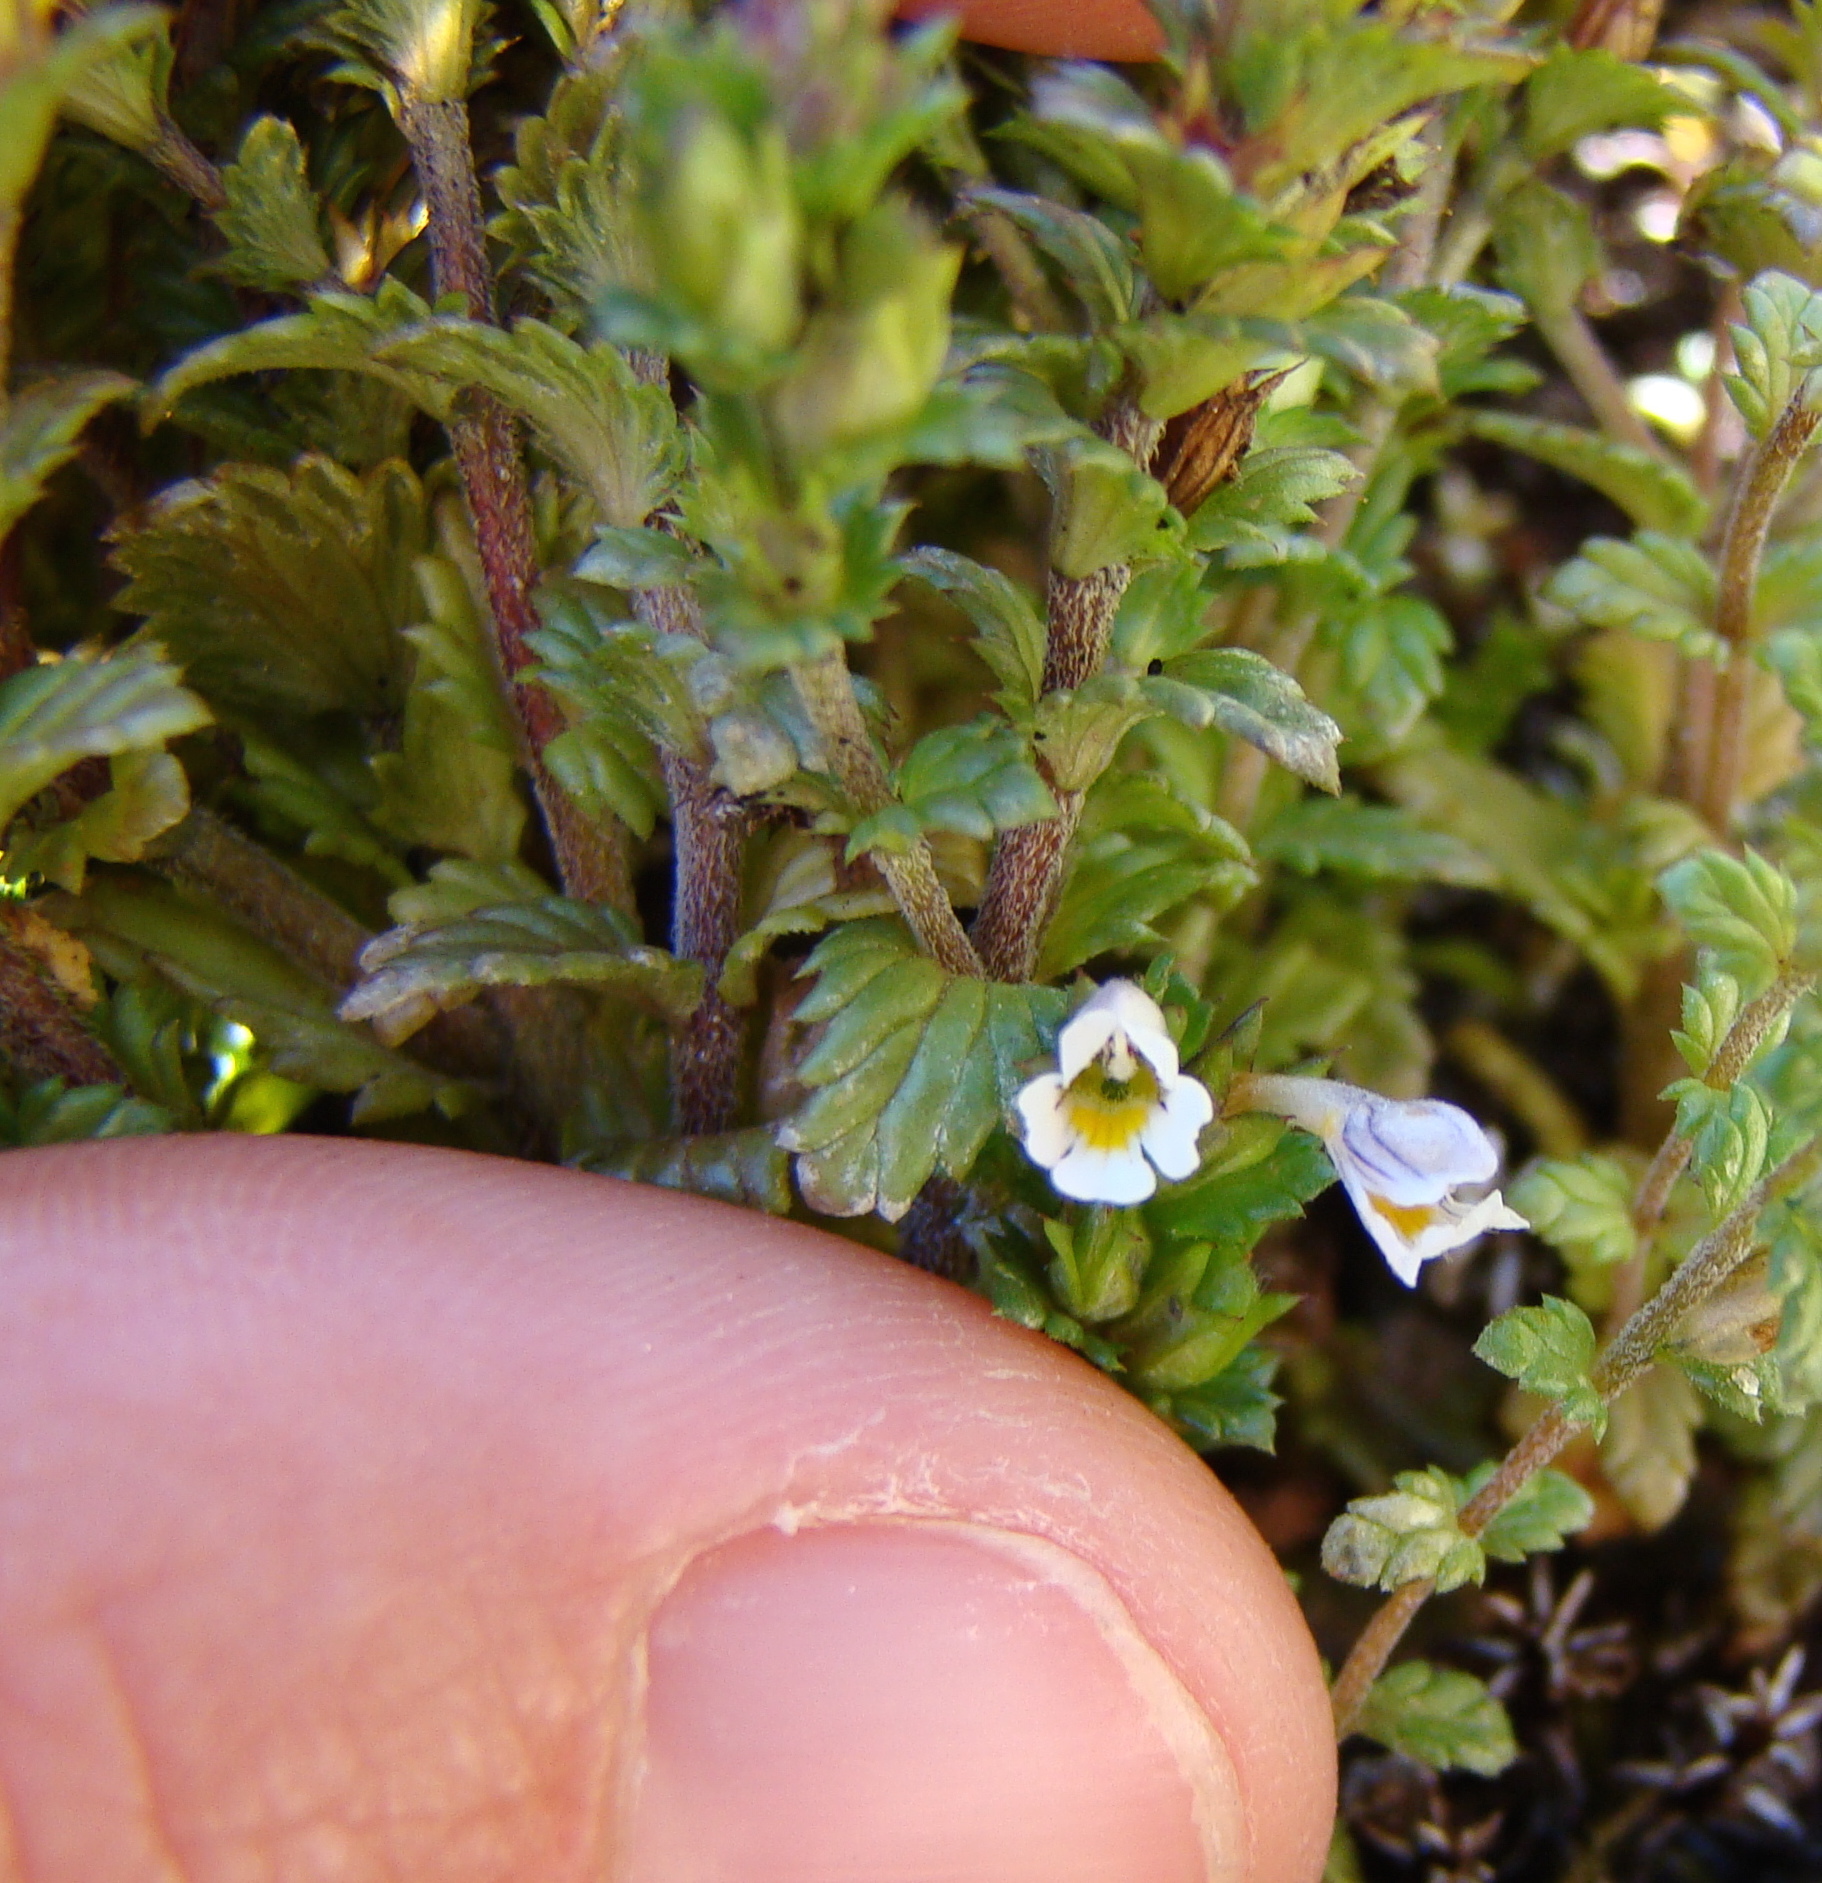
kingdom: Plantae
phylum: Tracheophyta
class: Magnoliopsida
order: Lamiales
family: Orobanchaceae
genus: Euphrasia
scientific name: Euphrasia nemorosa
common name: Common eyebright
